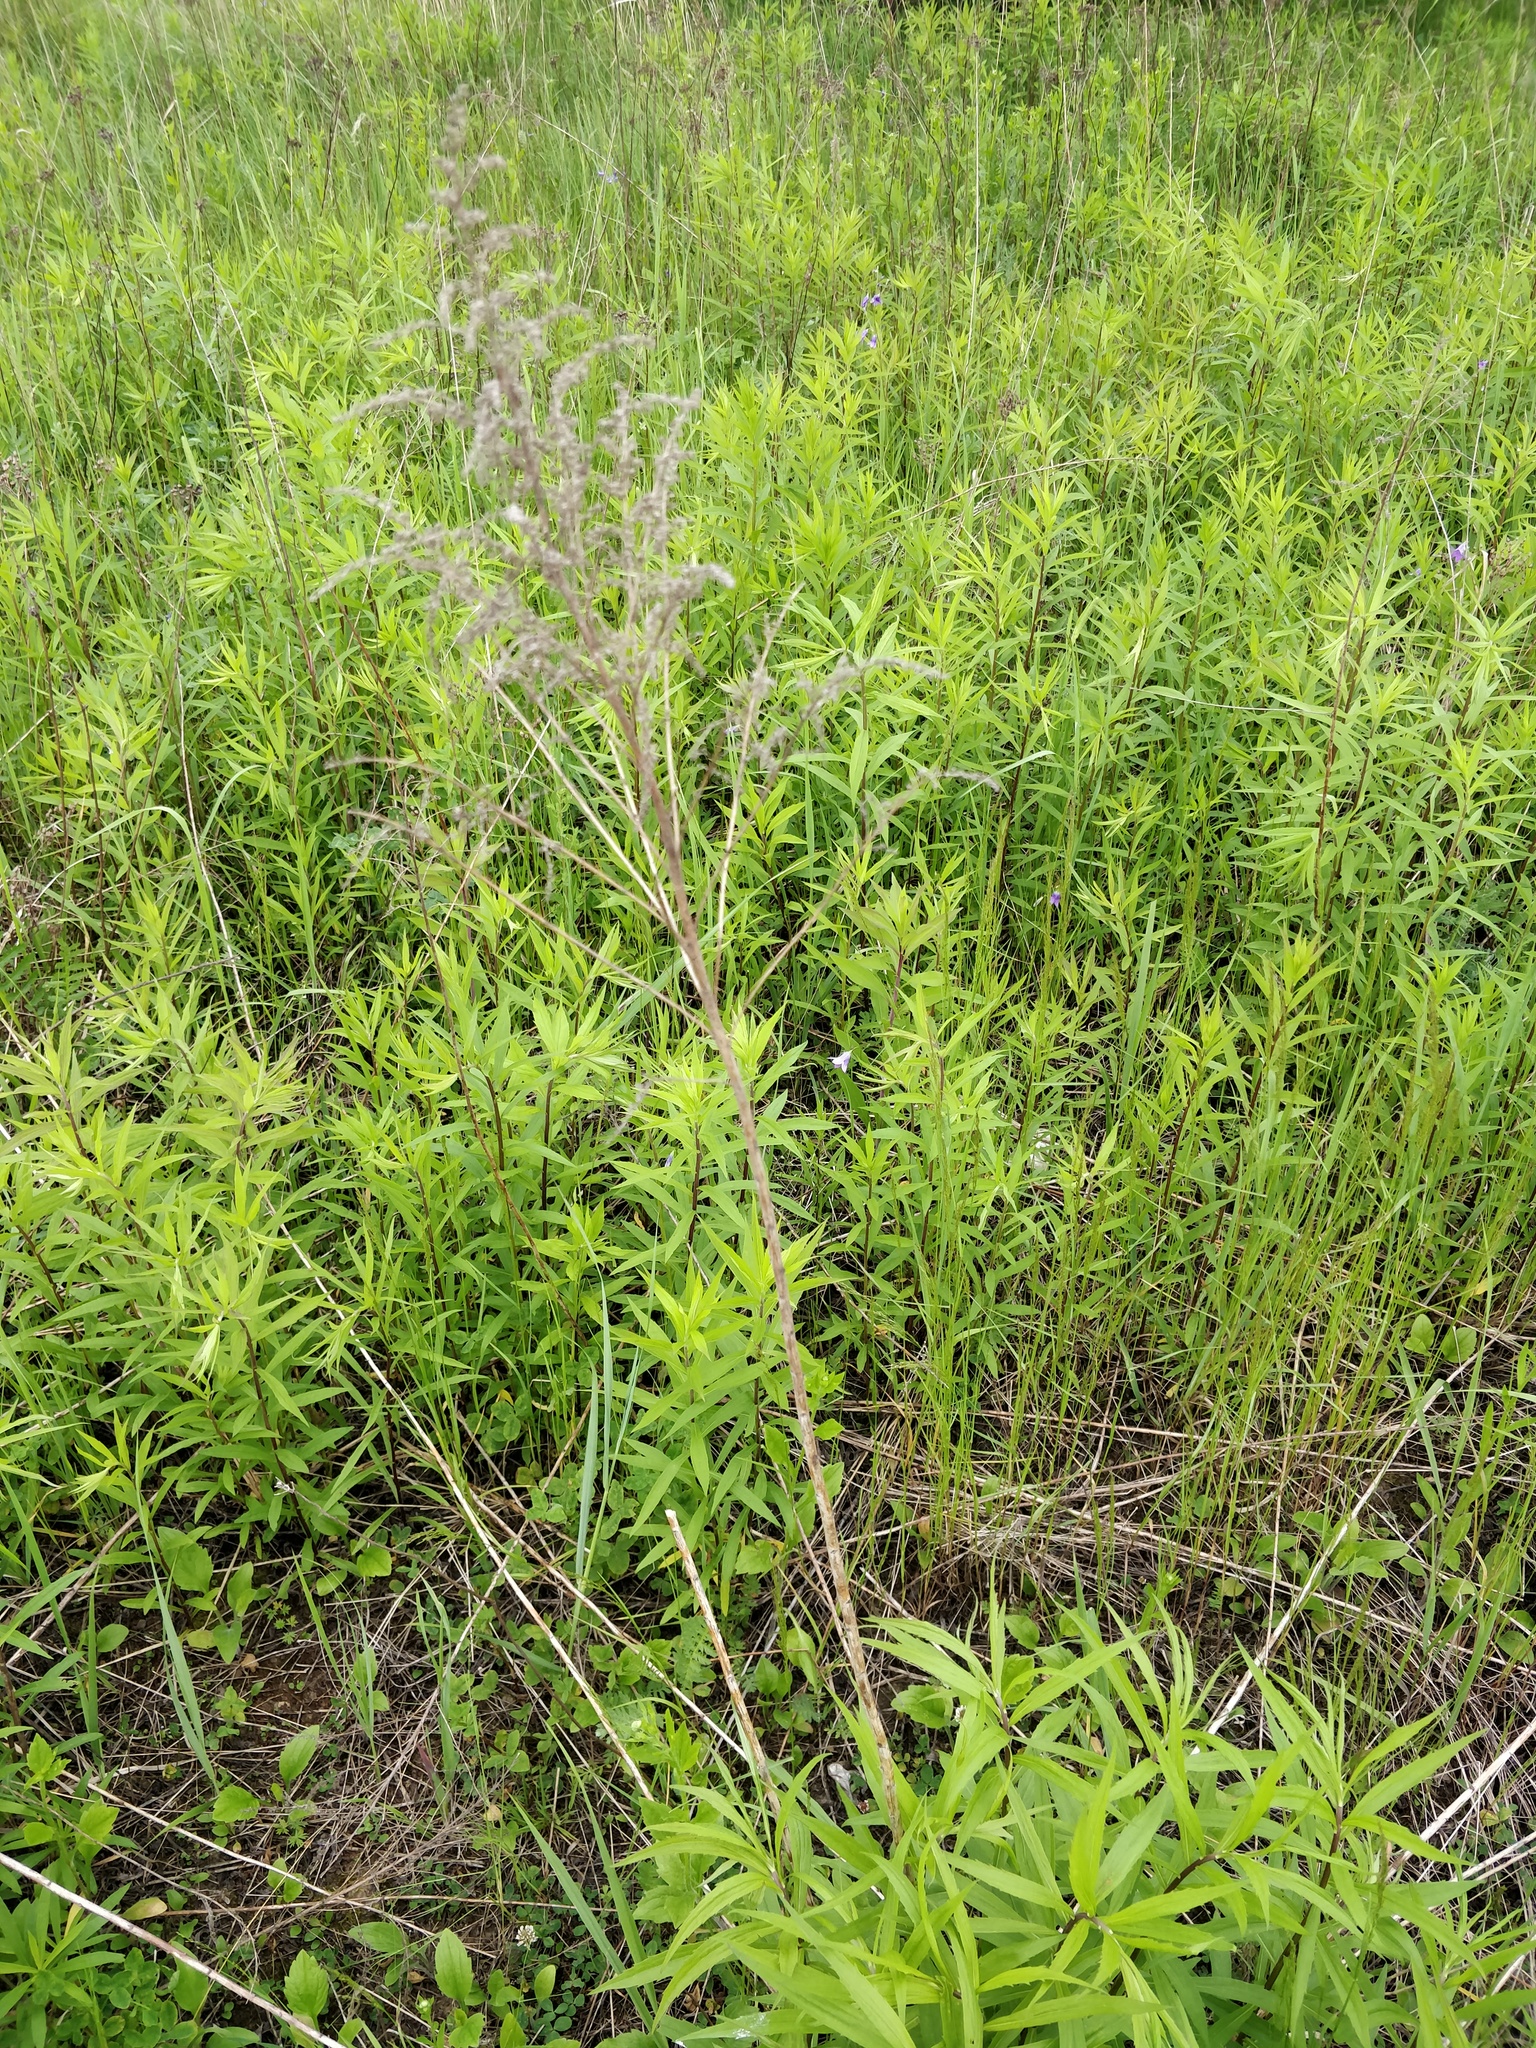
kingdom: Plantae
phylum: Tracheophyta
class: Magnoliopsida
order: Asterales
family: Asteraceae
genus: Solidago
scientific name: Solidago canadensis
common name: Canada goldenrod
